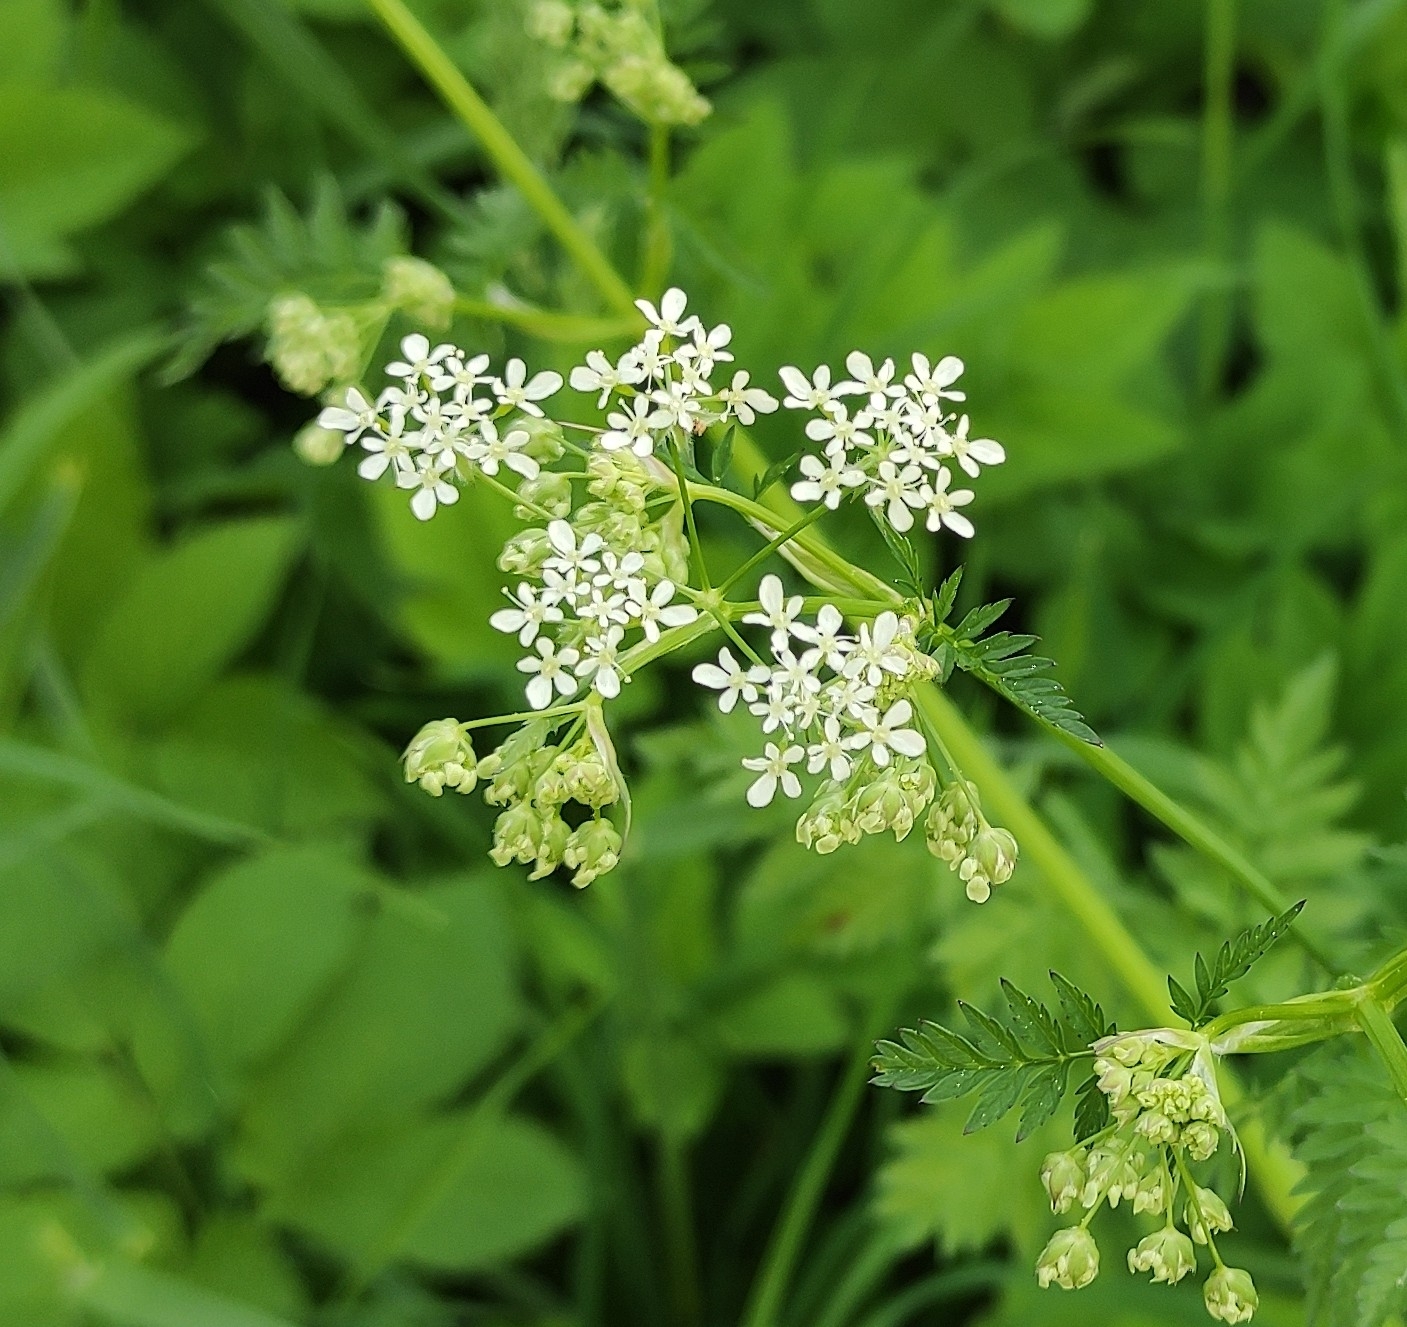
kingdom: Plantae
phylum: Tracheophyta
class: Magnoliopsida
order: Apiales
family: Apiaceae
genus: Anthriscus
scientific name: Anthriscus sylvestris
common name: Cow parsley
